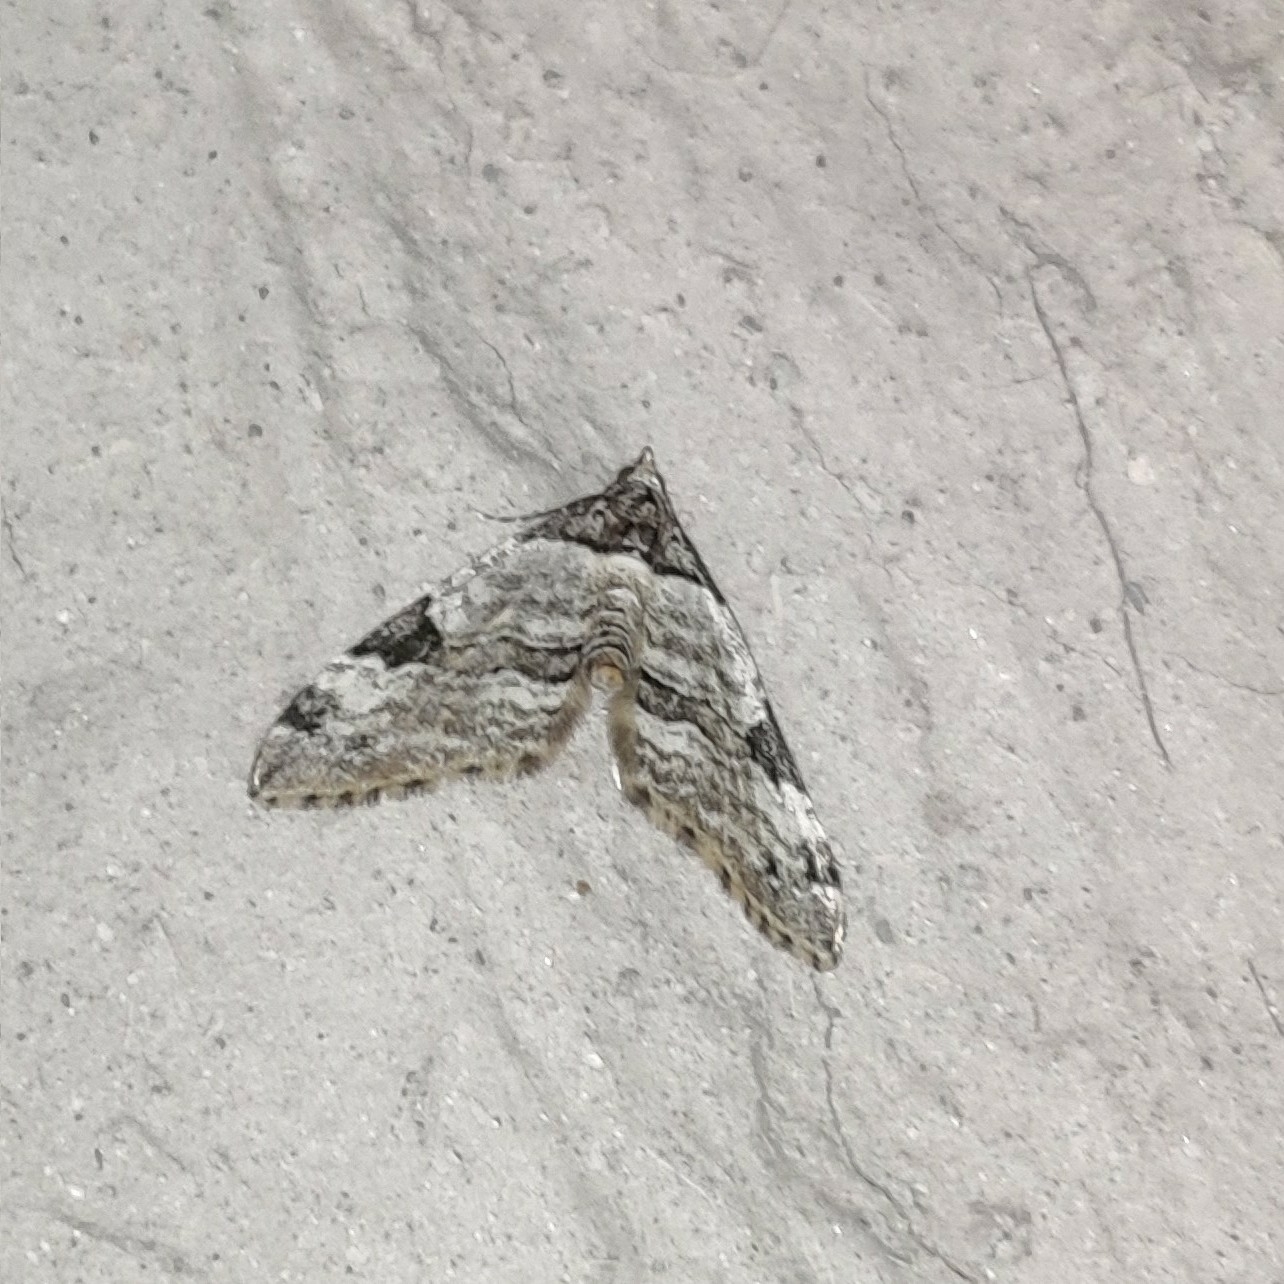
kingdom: Animalia
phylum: Arthropoda
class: Insecta
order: Lepidoptera
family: Geometridae
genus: Martania
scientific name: Martania
